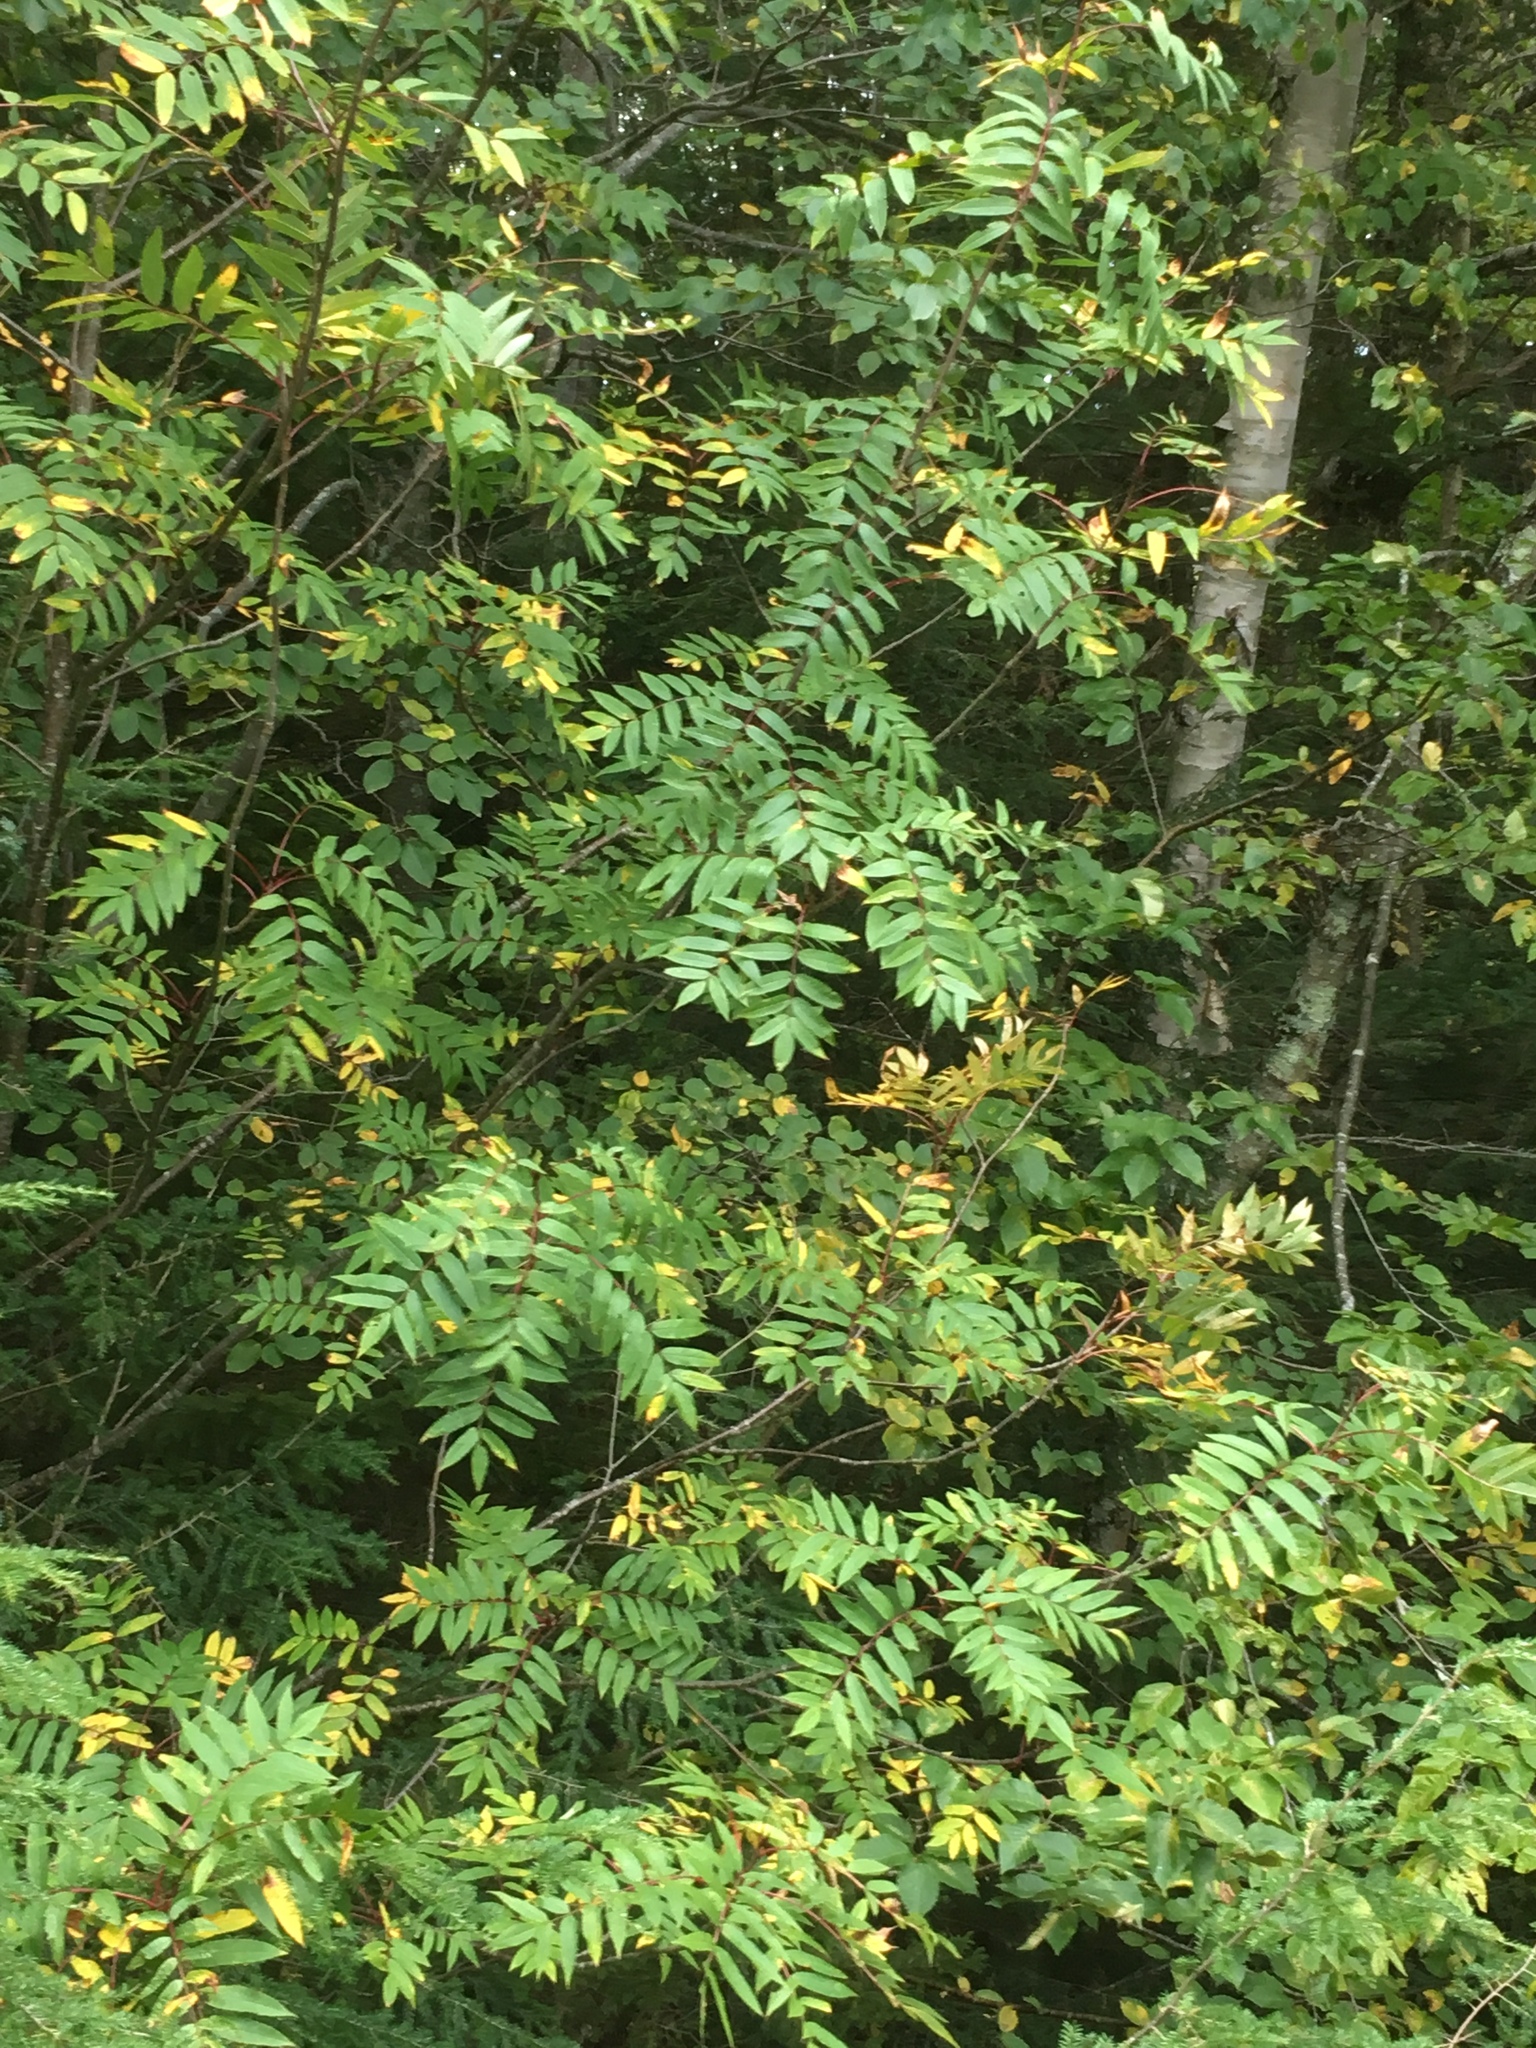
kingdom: Plantae
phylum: Tracheophyta
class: Magnoliopsida
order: Rosales
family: Rosaceae
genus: Sorbus
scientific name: Sorbus americana
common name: American mountain-ash
